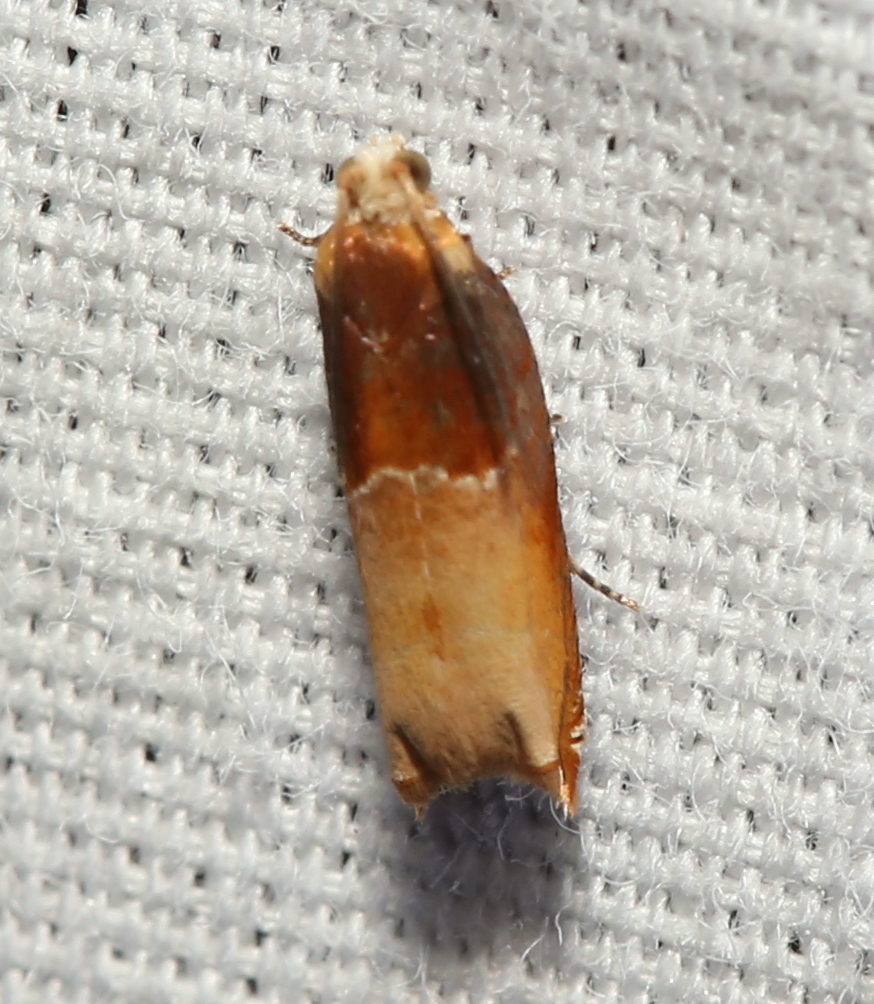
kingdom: Animalia
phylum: Arthropoda
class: Insecta
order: Lepidoptera
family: Tortricidae
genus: Ancylis
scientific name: Ancylis divisana
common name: Two-toned ancylis moth
